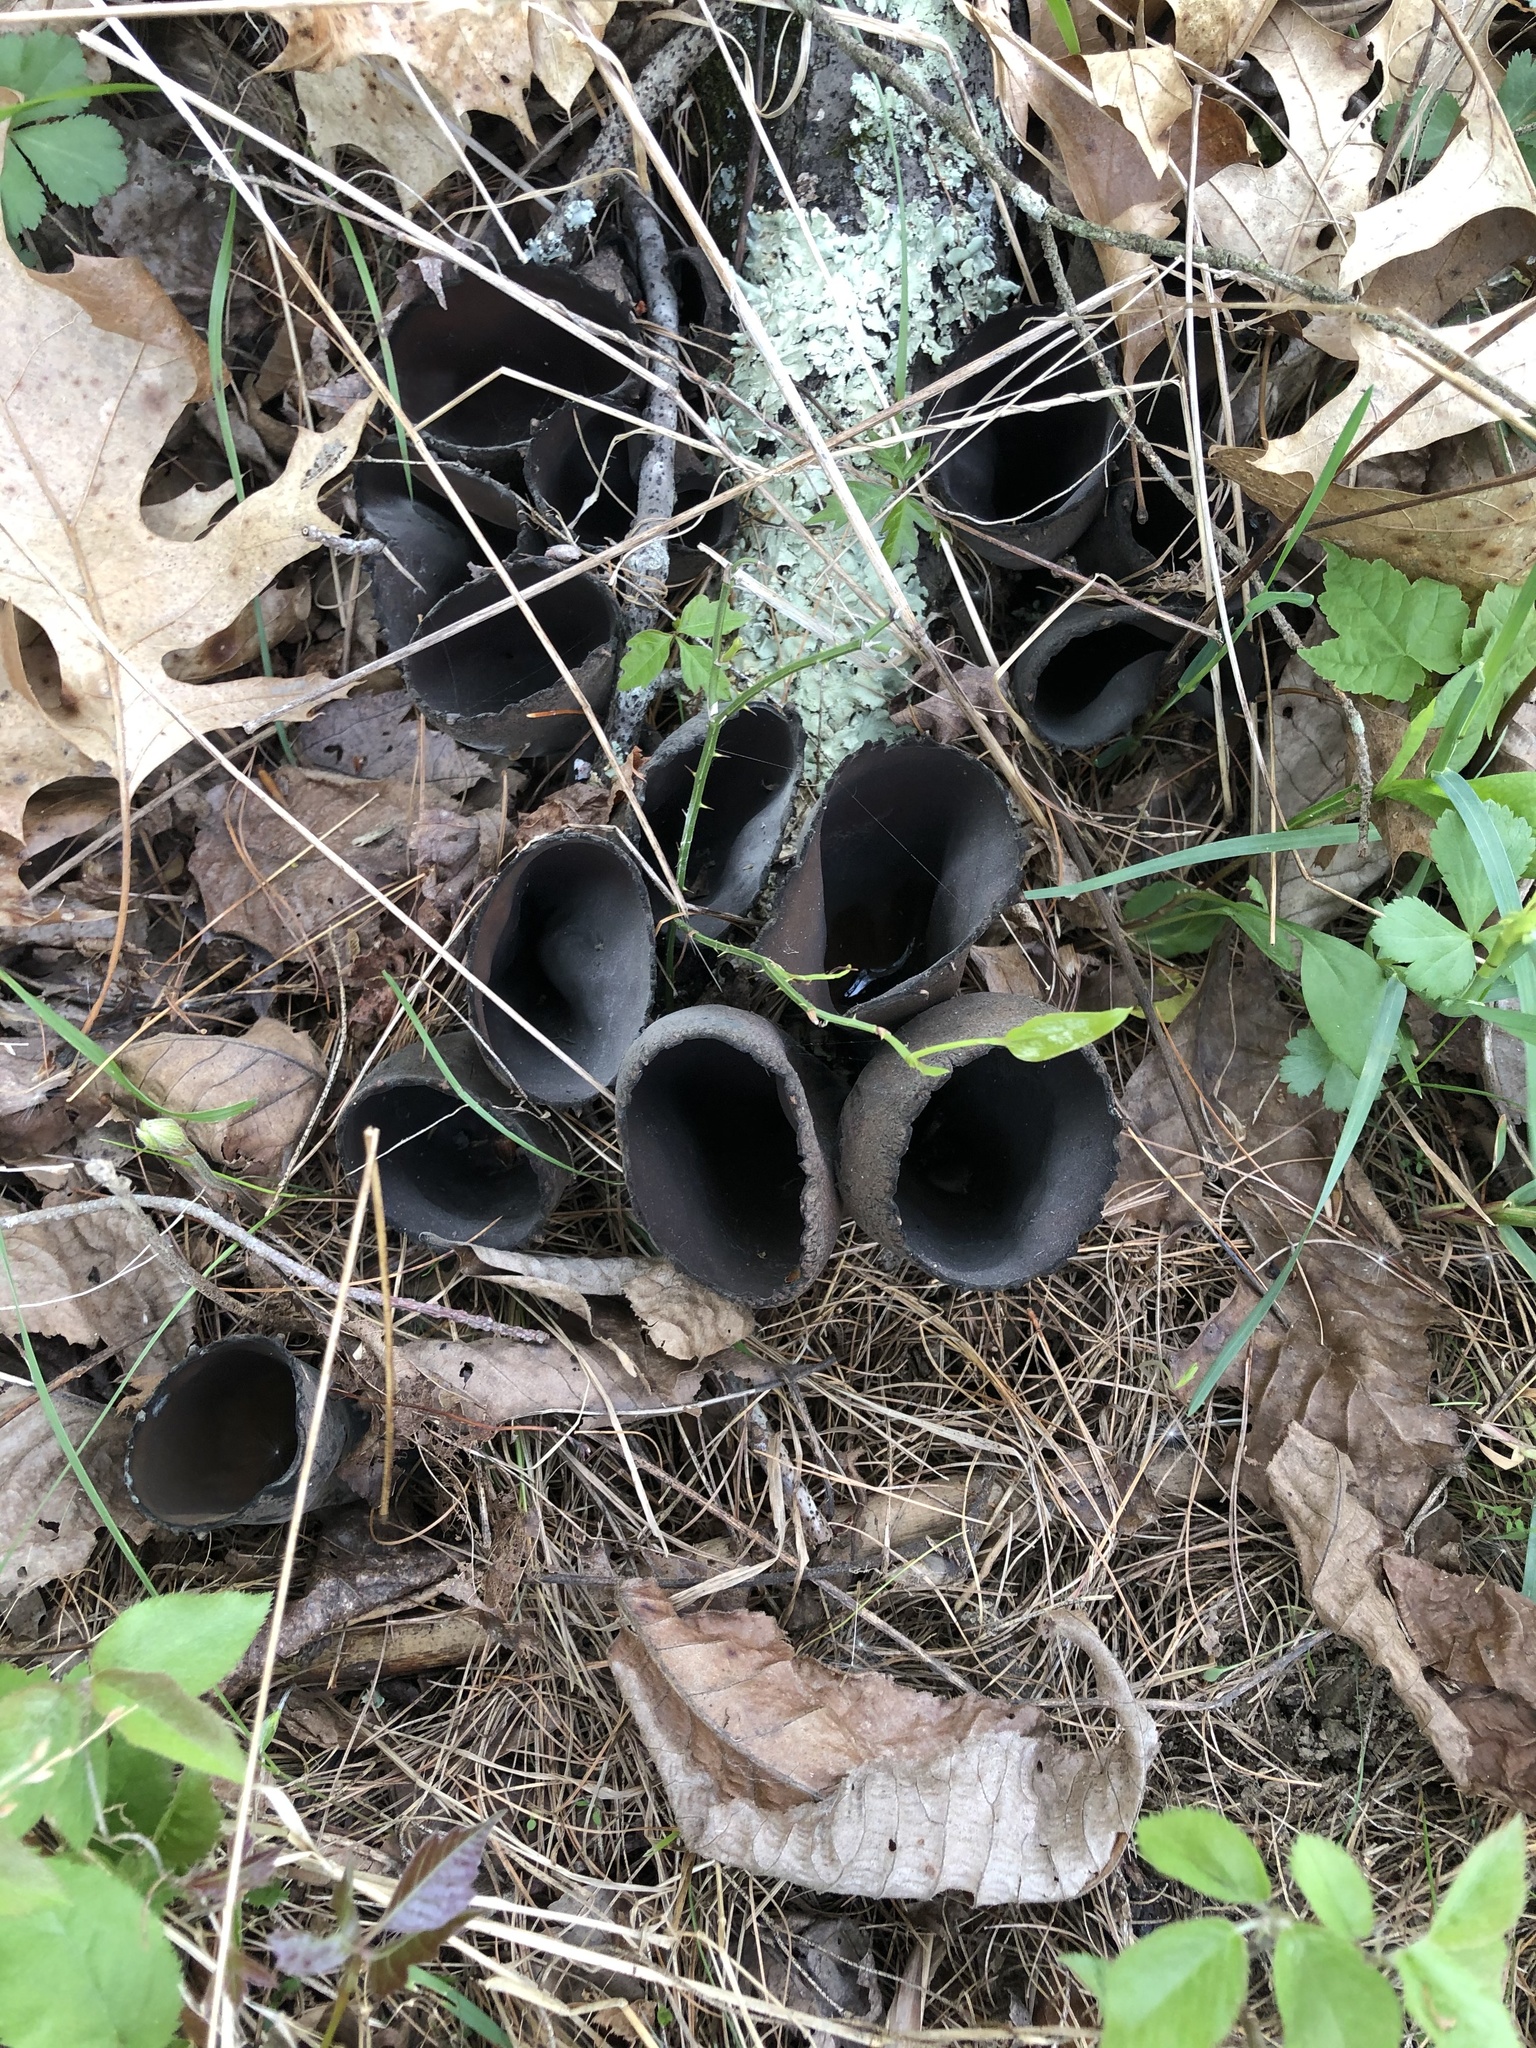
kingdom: Fungi
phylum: Ascomycota
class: Pezizomycetes
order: Pezizales
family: Sarcosomataceae
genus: Urnula
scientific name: Urnula craterium
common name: Devil's urn
